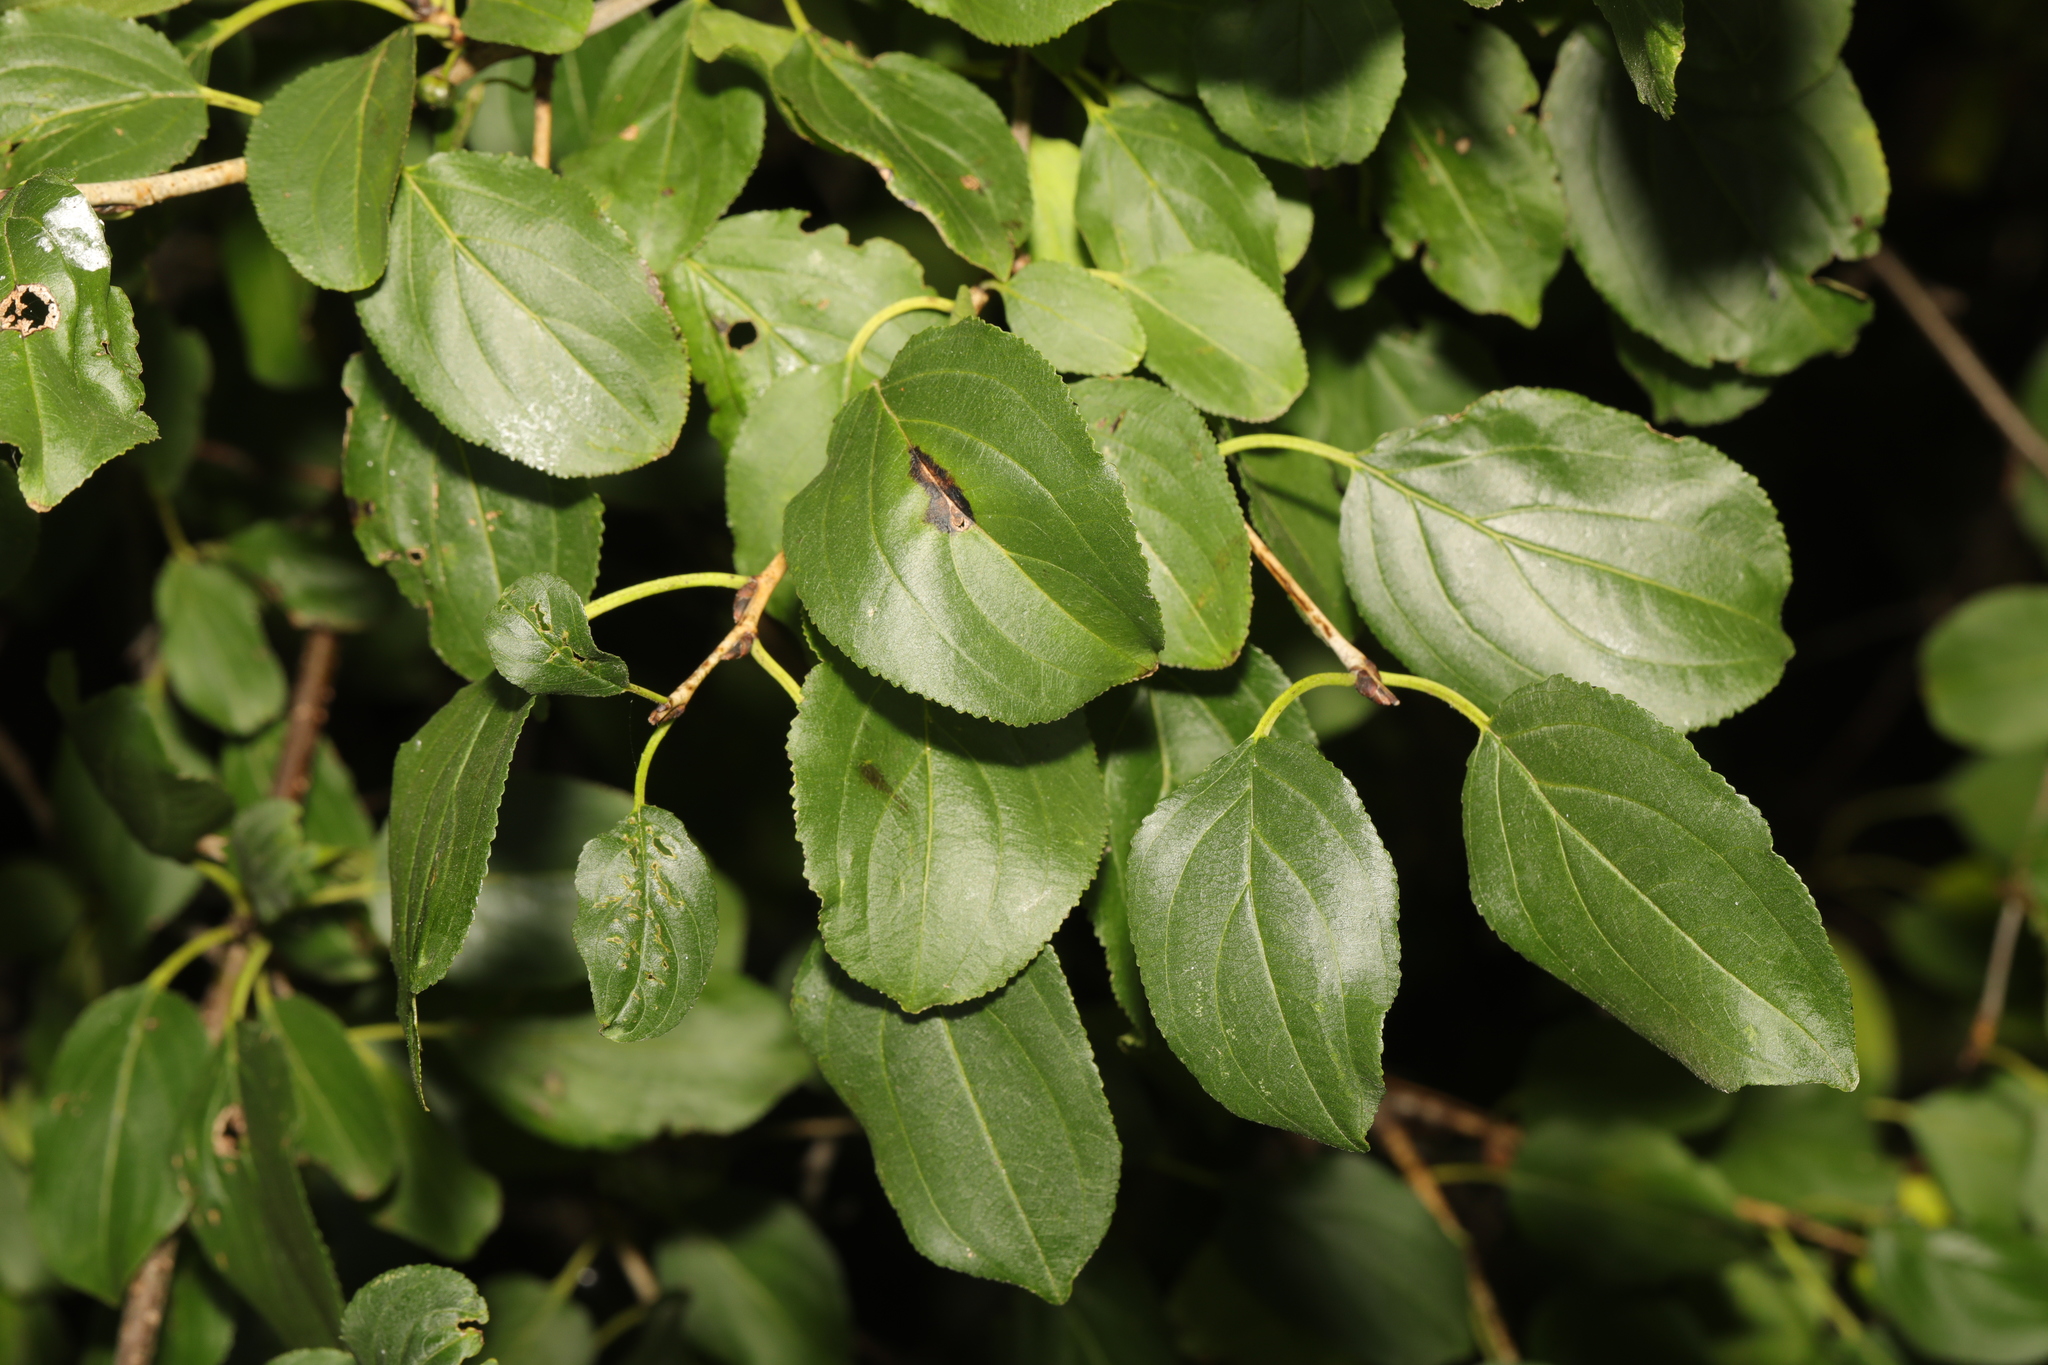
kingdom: Plantae
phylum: Tracheophyta
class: Magnoliopsida
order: Rosales
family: Rhamnaceae
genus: Rhamnus
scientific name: Rhamnus cathartica
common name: Common buckthorn
